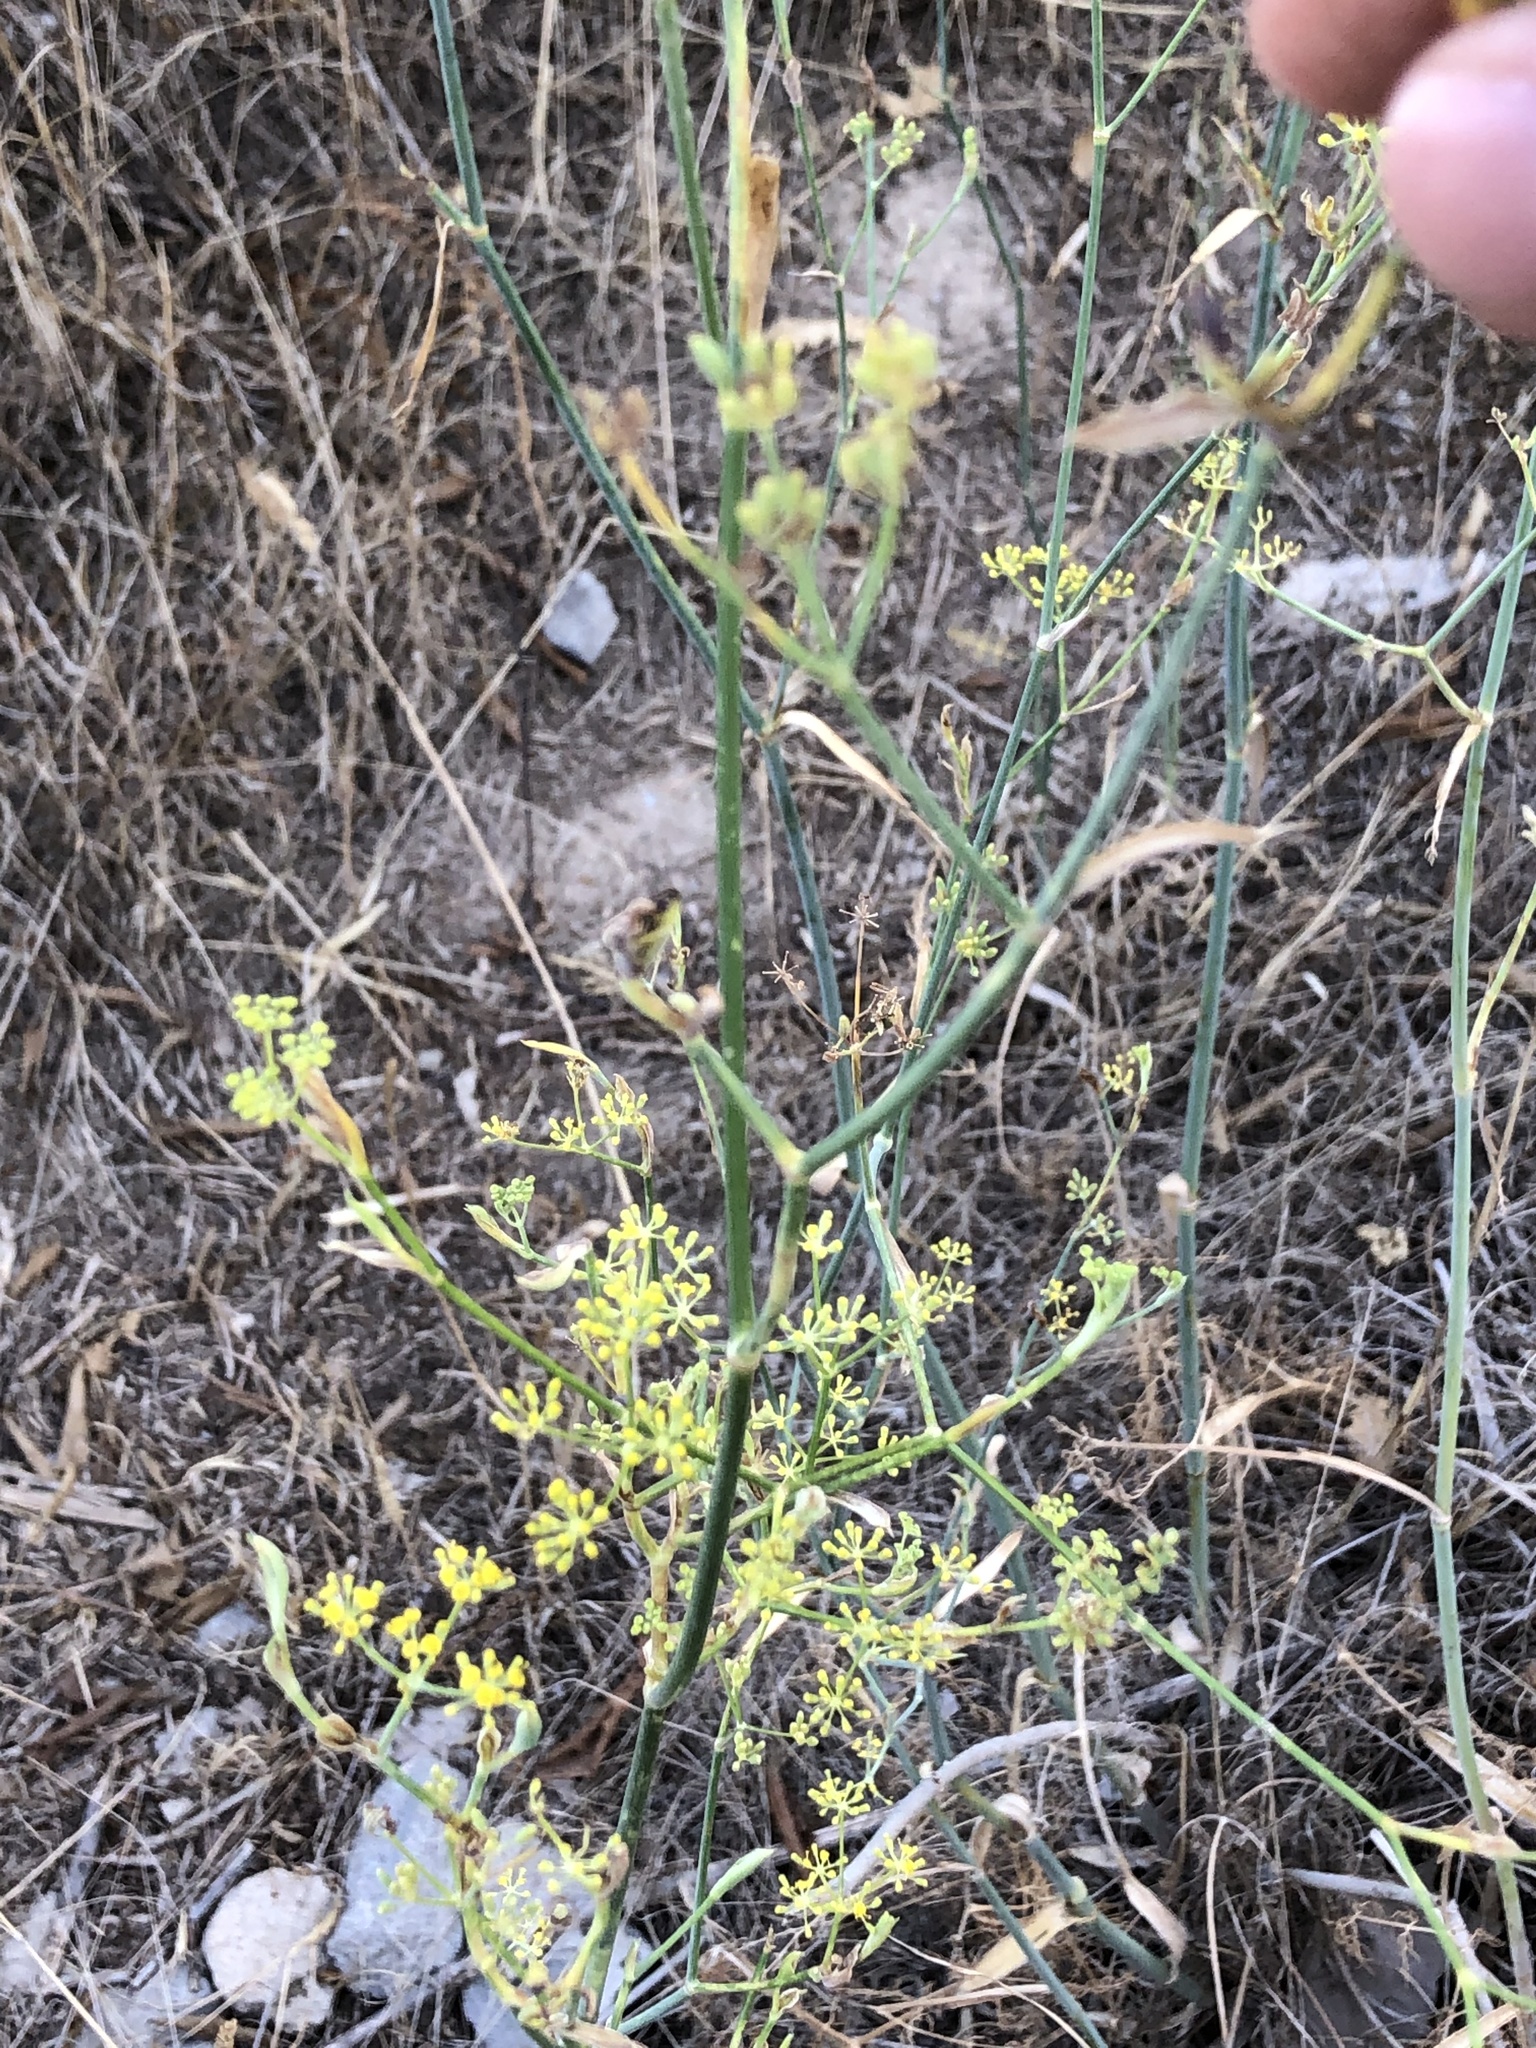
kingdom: Plantae
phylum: Tracheophyta
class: Magnoliopsida
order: Apiales
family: Apiaceae
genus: Foeniculum
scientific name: Foeniculum vulgare
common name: Fennel
